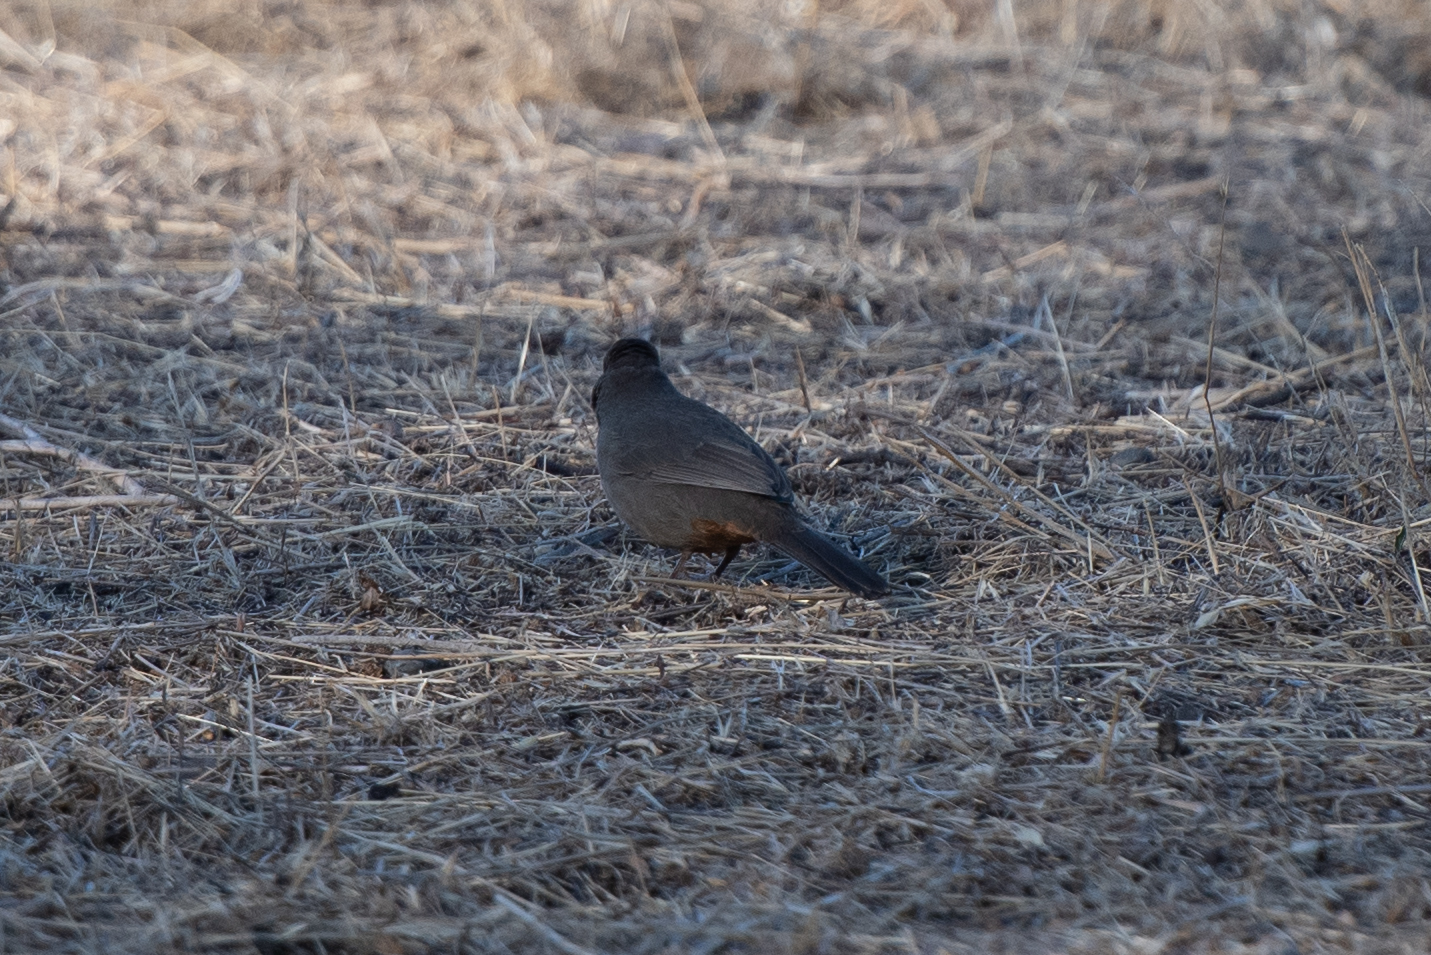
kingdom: Animalia
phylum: Chordata
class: Aves
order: Passeriformes
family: Passerellidae
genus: Melozone
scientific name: Melozone crissalis
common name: California towhee
